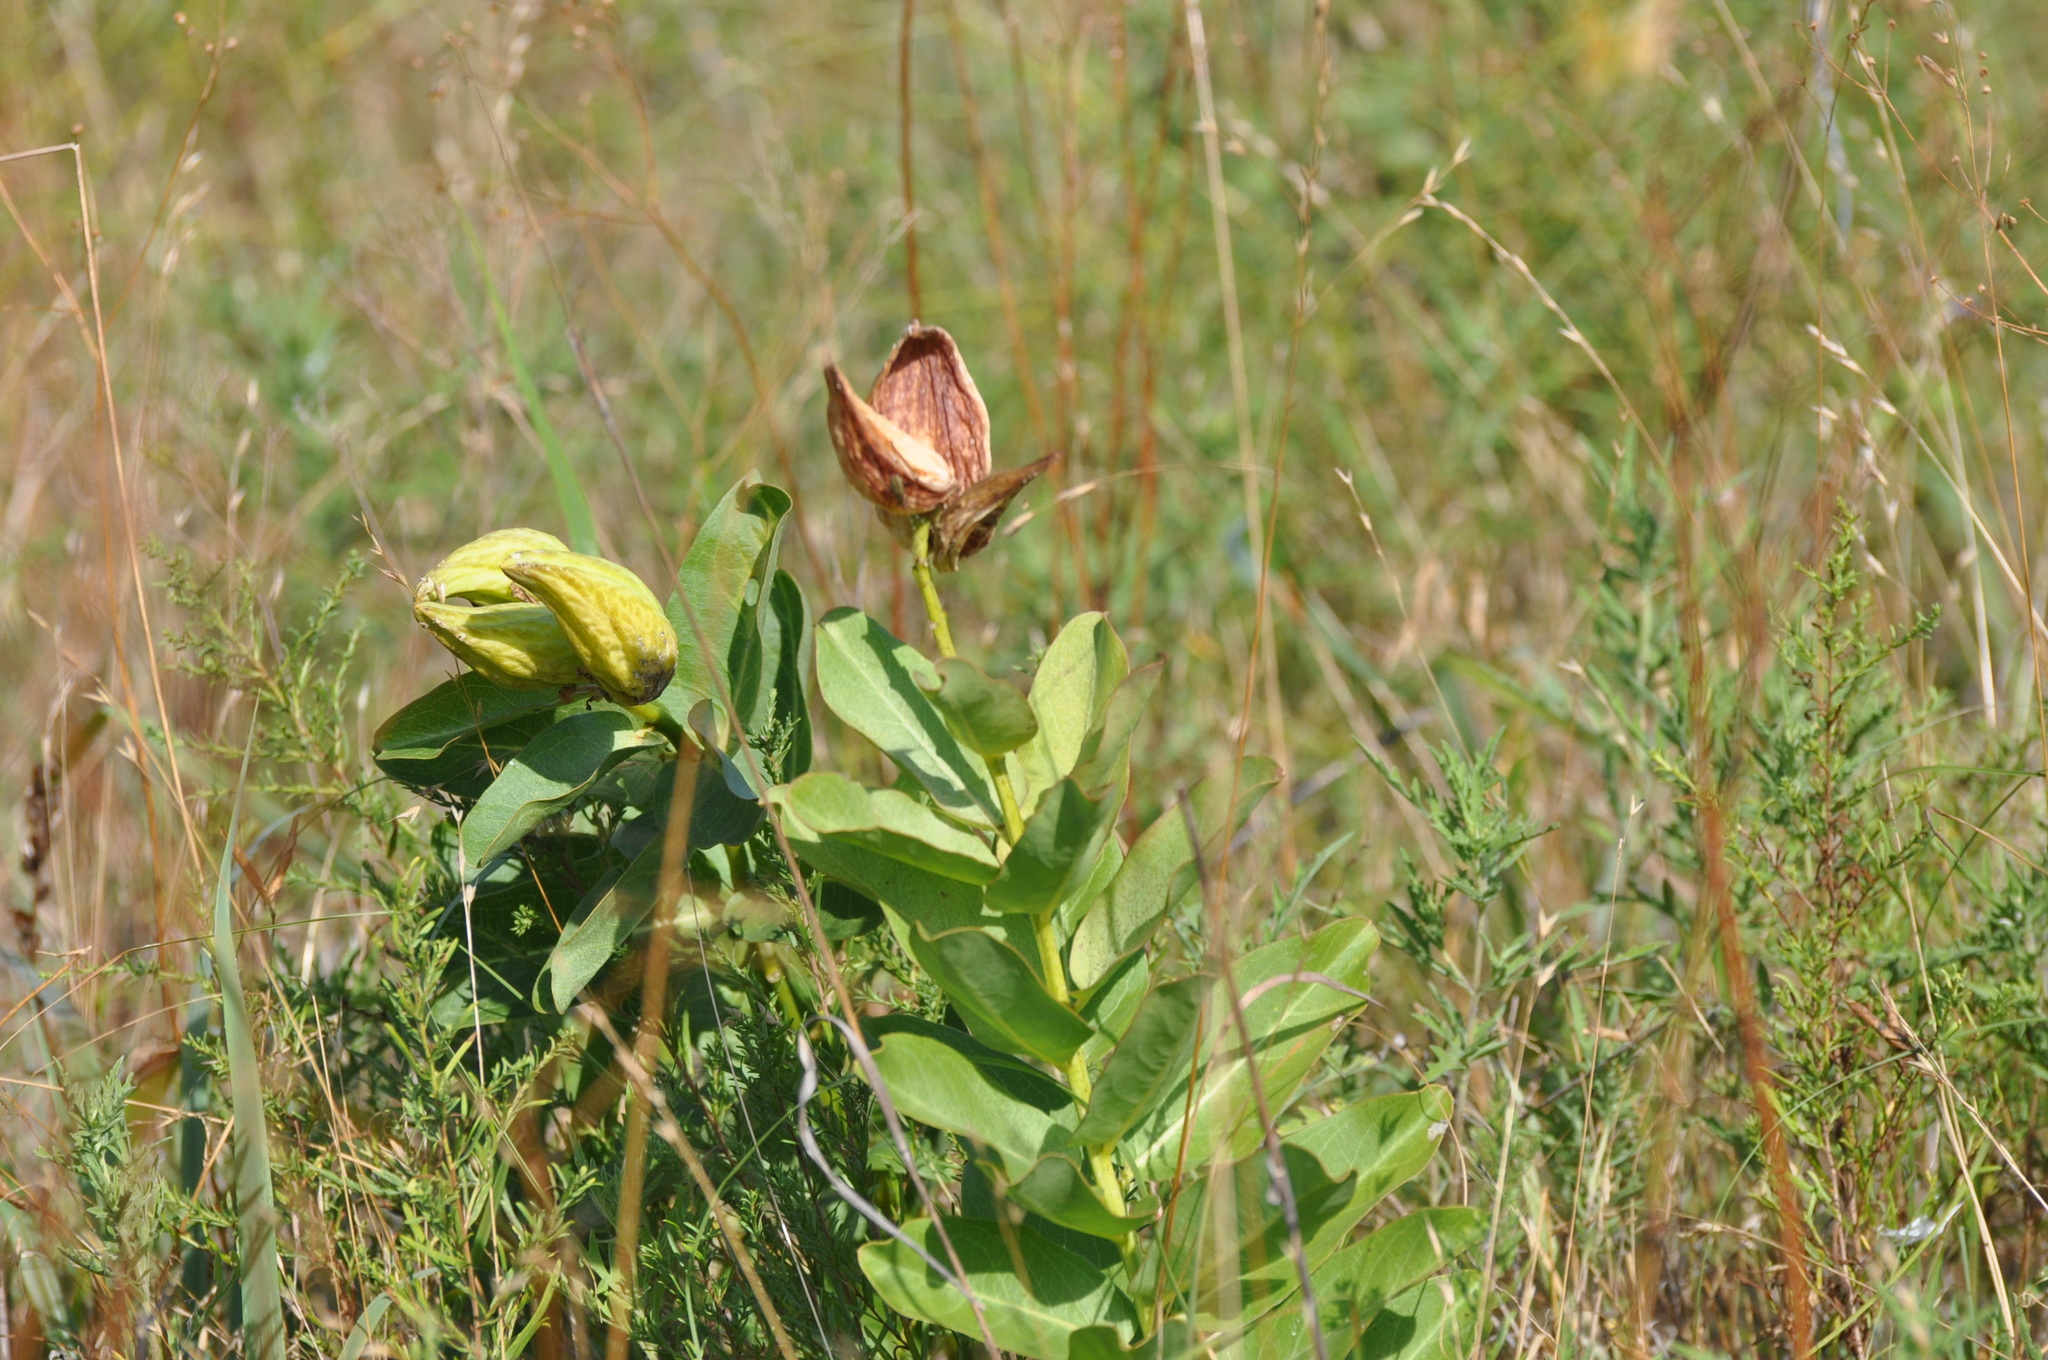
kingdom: Plantae
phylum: Tracheophyta
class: Magnoliopsida
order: Gentianales
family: Apocynaceae
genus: Asclepias
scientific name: Asclepias viridis
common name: Antelope-horns
